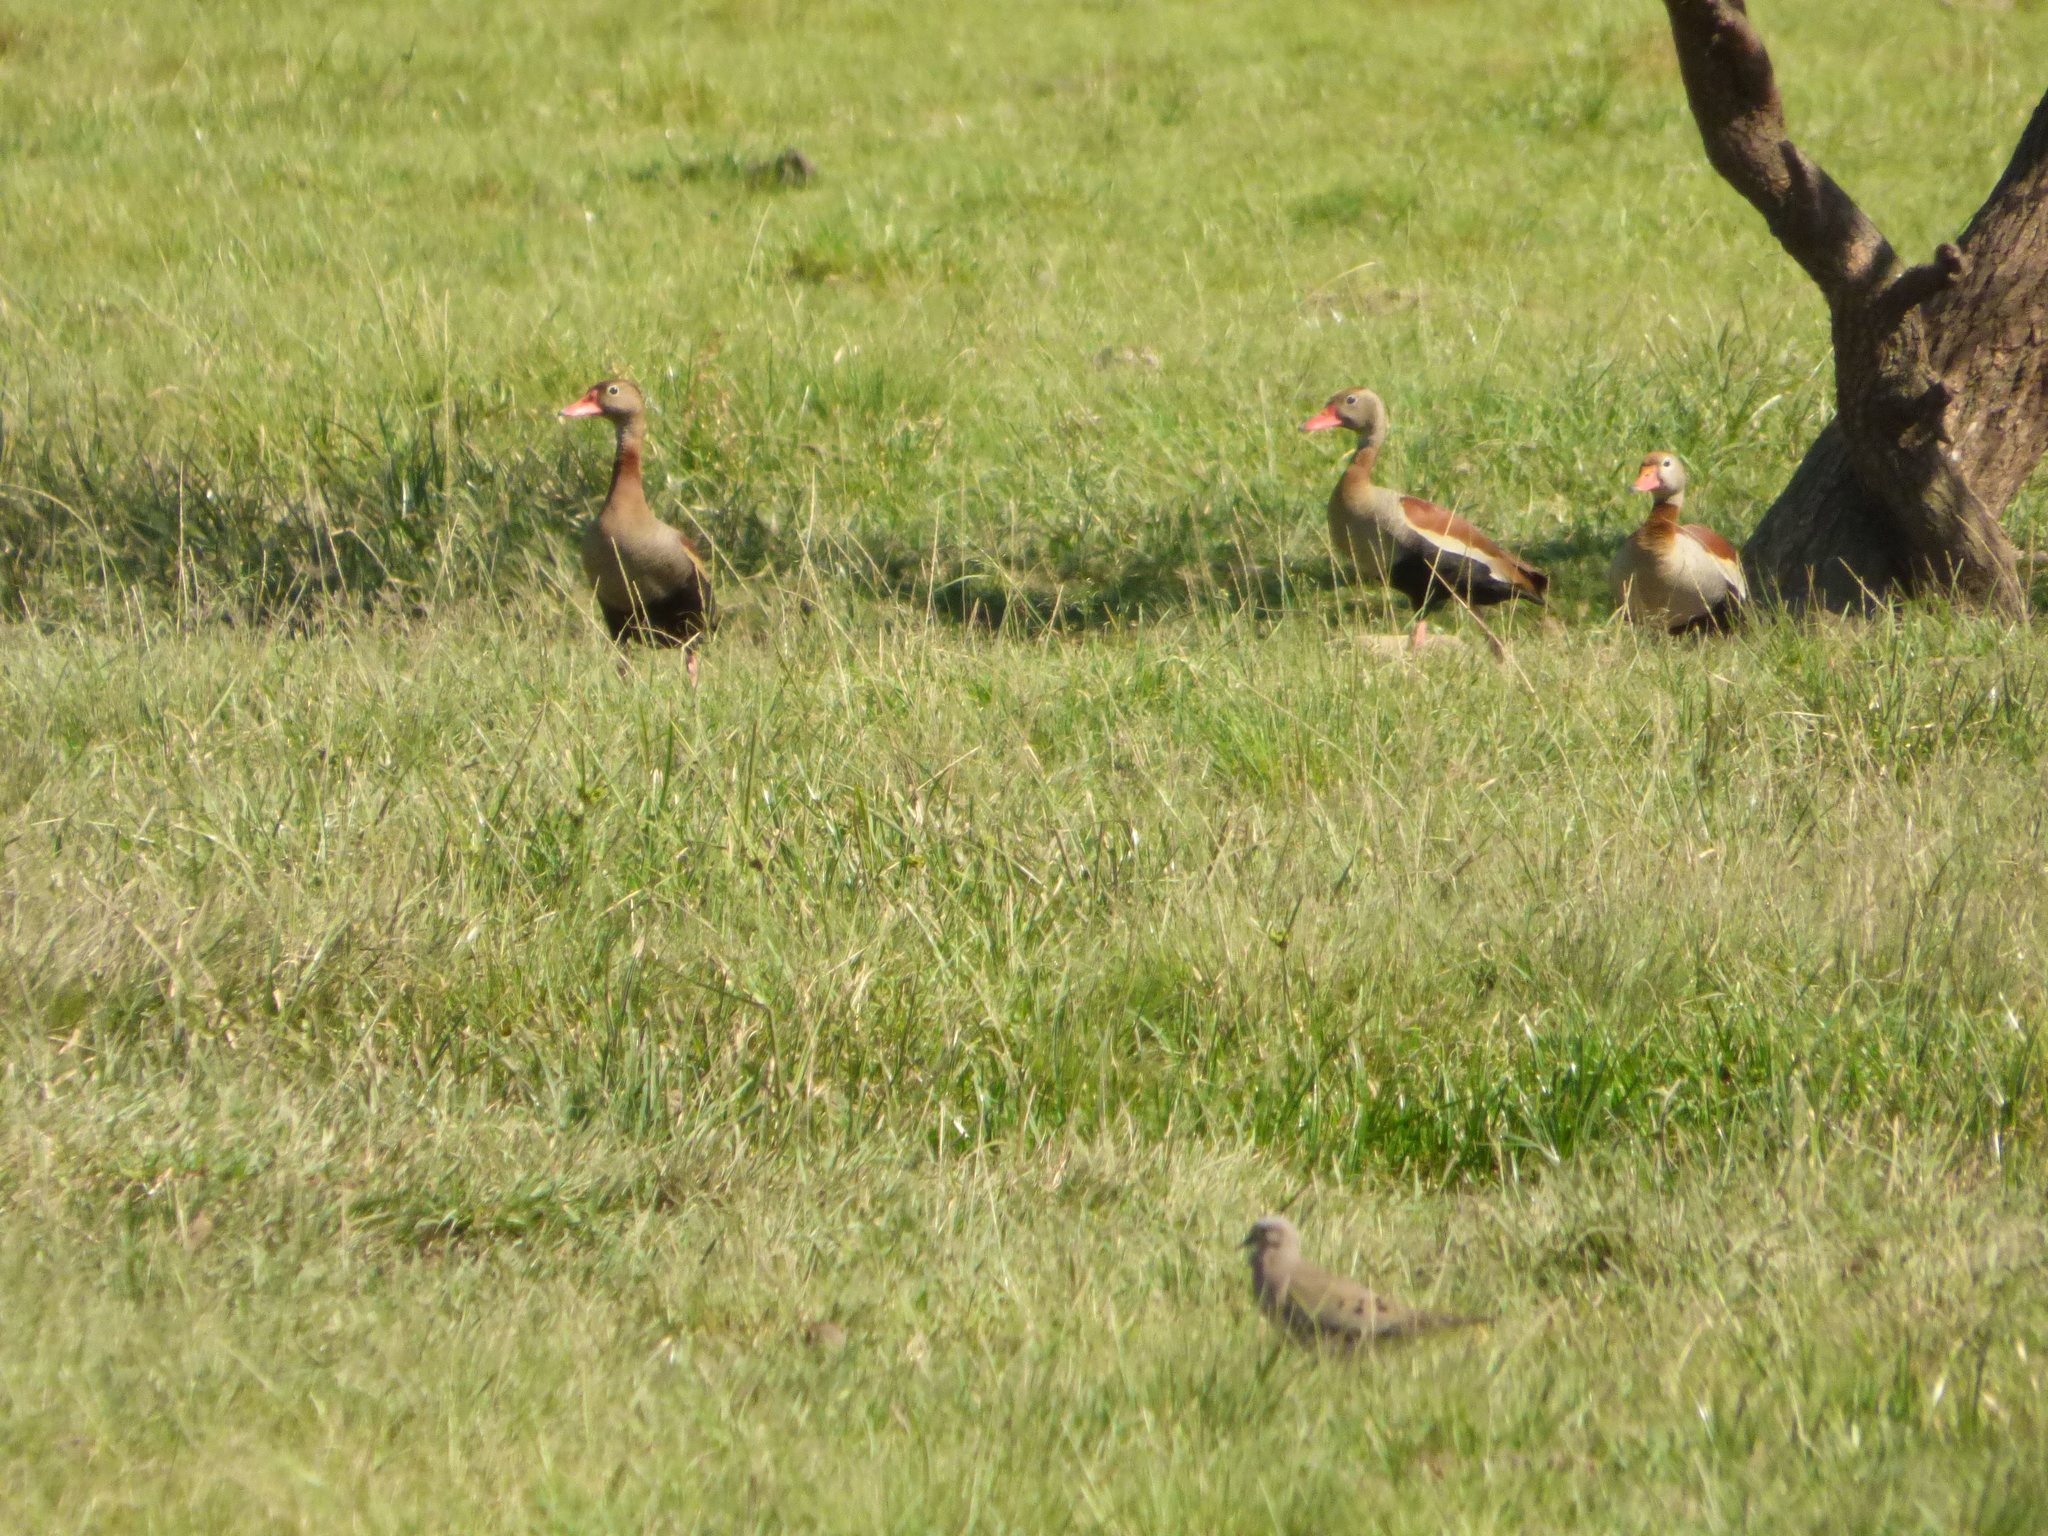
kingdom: Animalia
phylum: Chordata
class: Aves
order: Anseriformes
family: Anatidae
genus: Dendrocygna
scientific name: Dendrocygna autumnalis
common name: Black-bellied whistling duck
